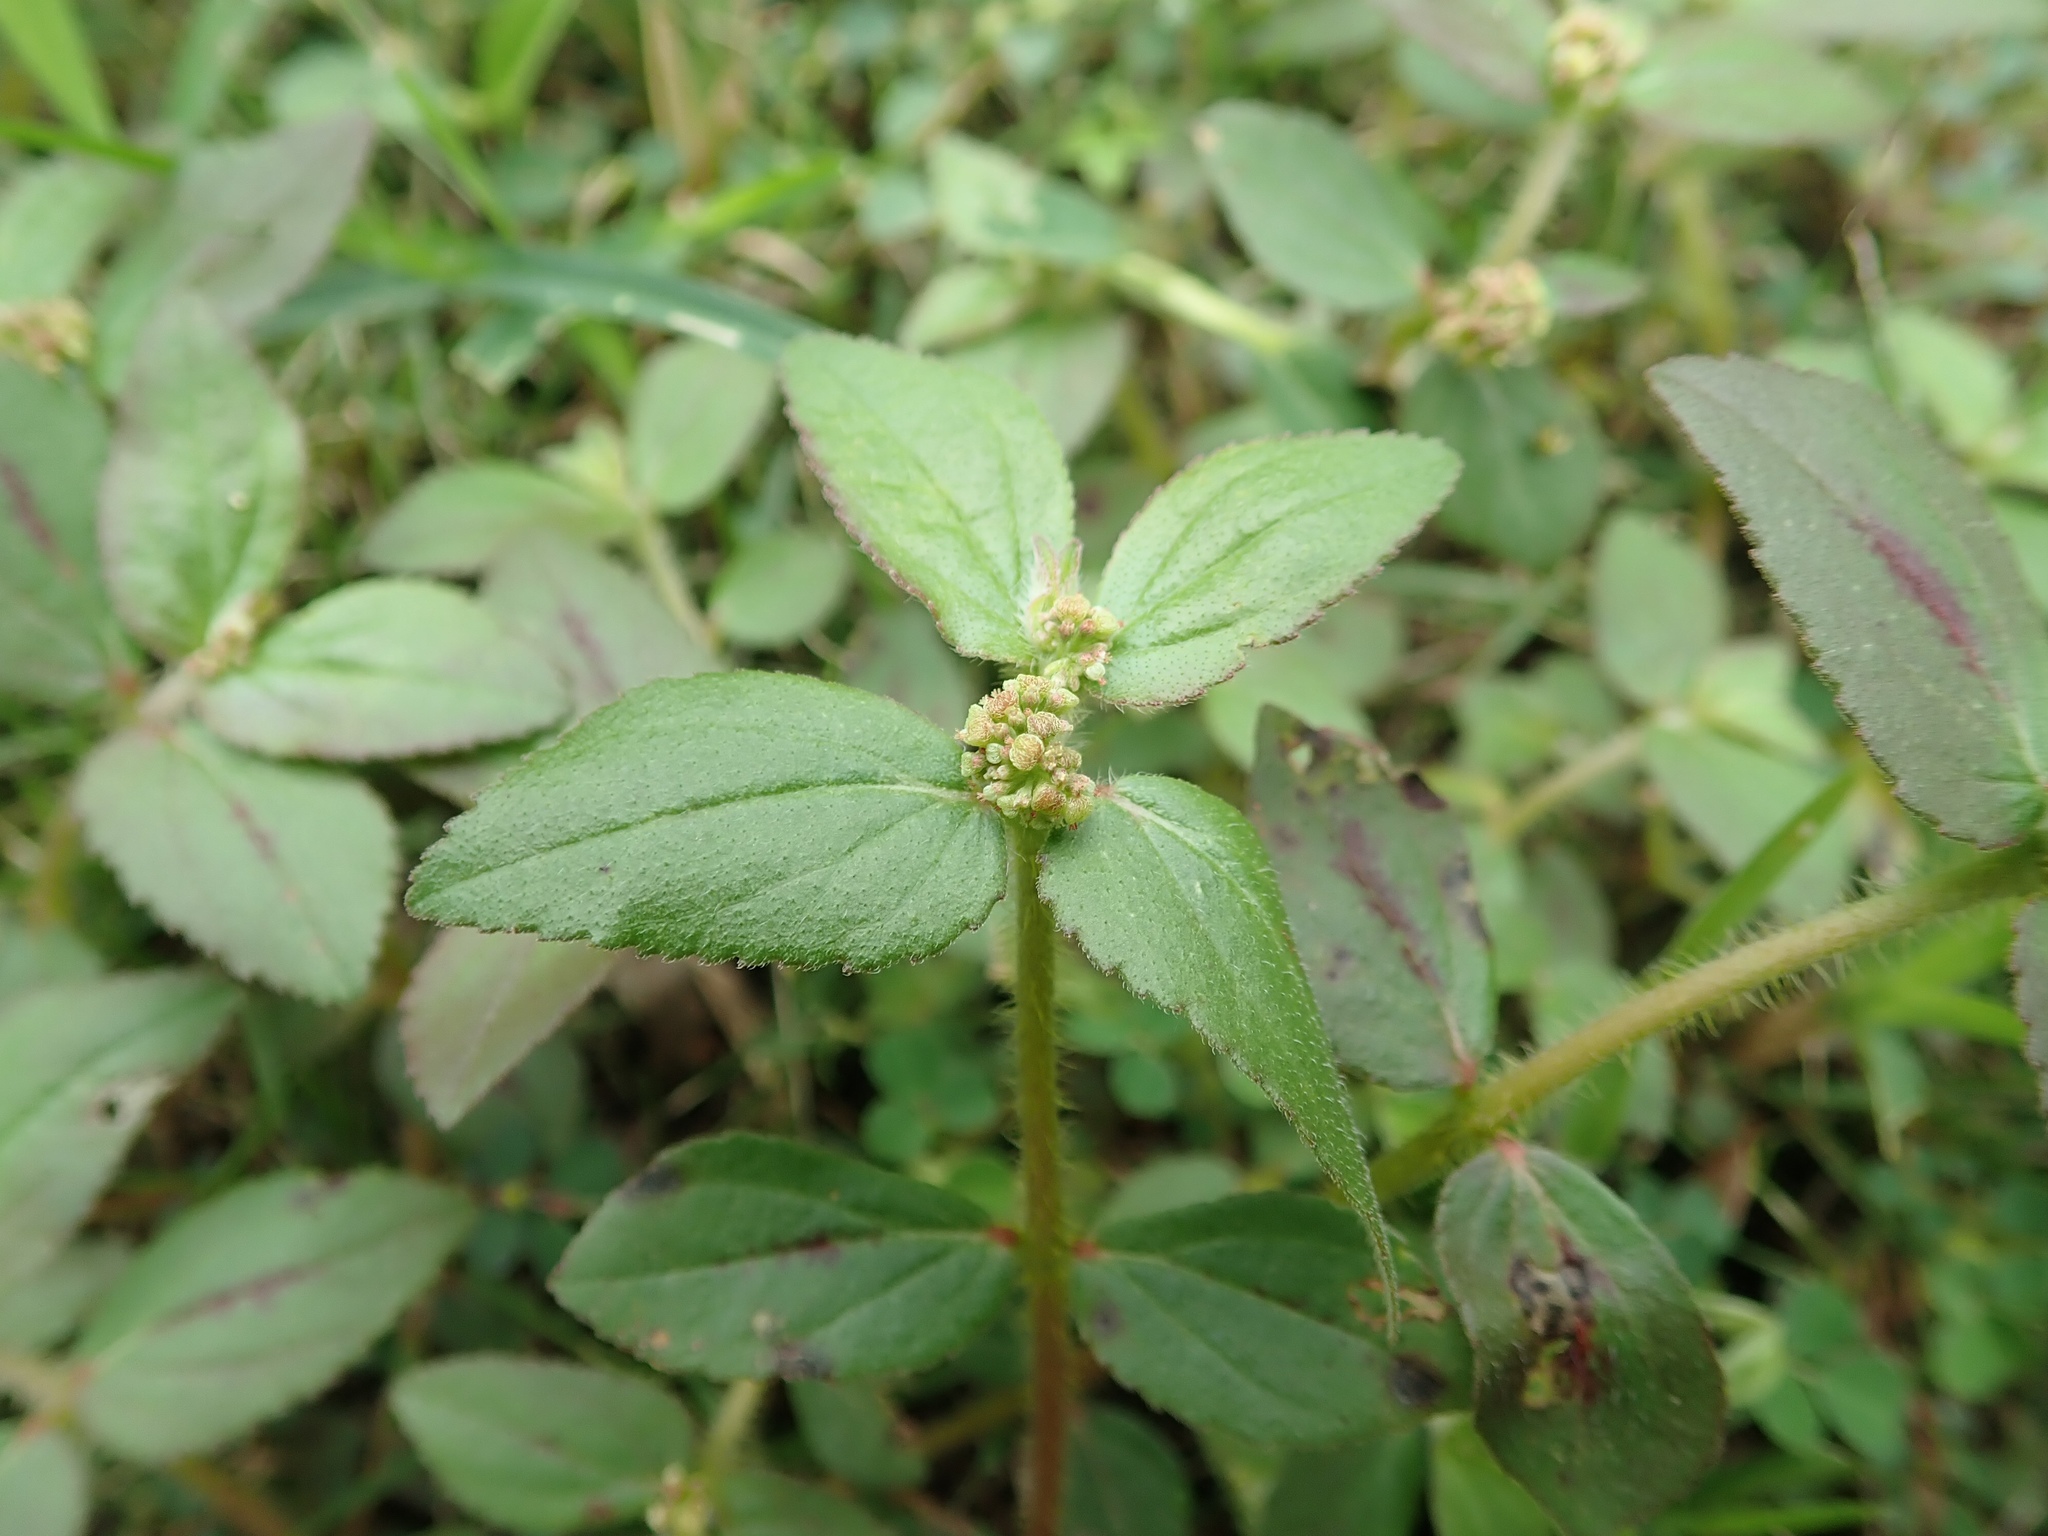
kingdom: Plantae
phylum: Tracheophyta
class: Magnoliopsida
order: Malpighiales
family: Euphorbiaceae
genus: Euphorbia
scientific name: Euphorbia hirta
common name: Pillpod sandmat
